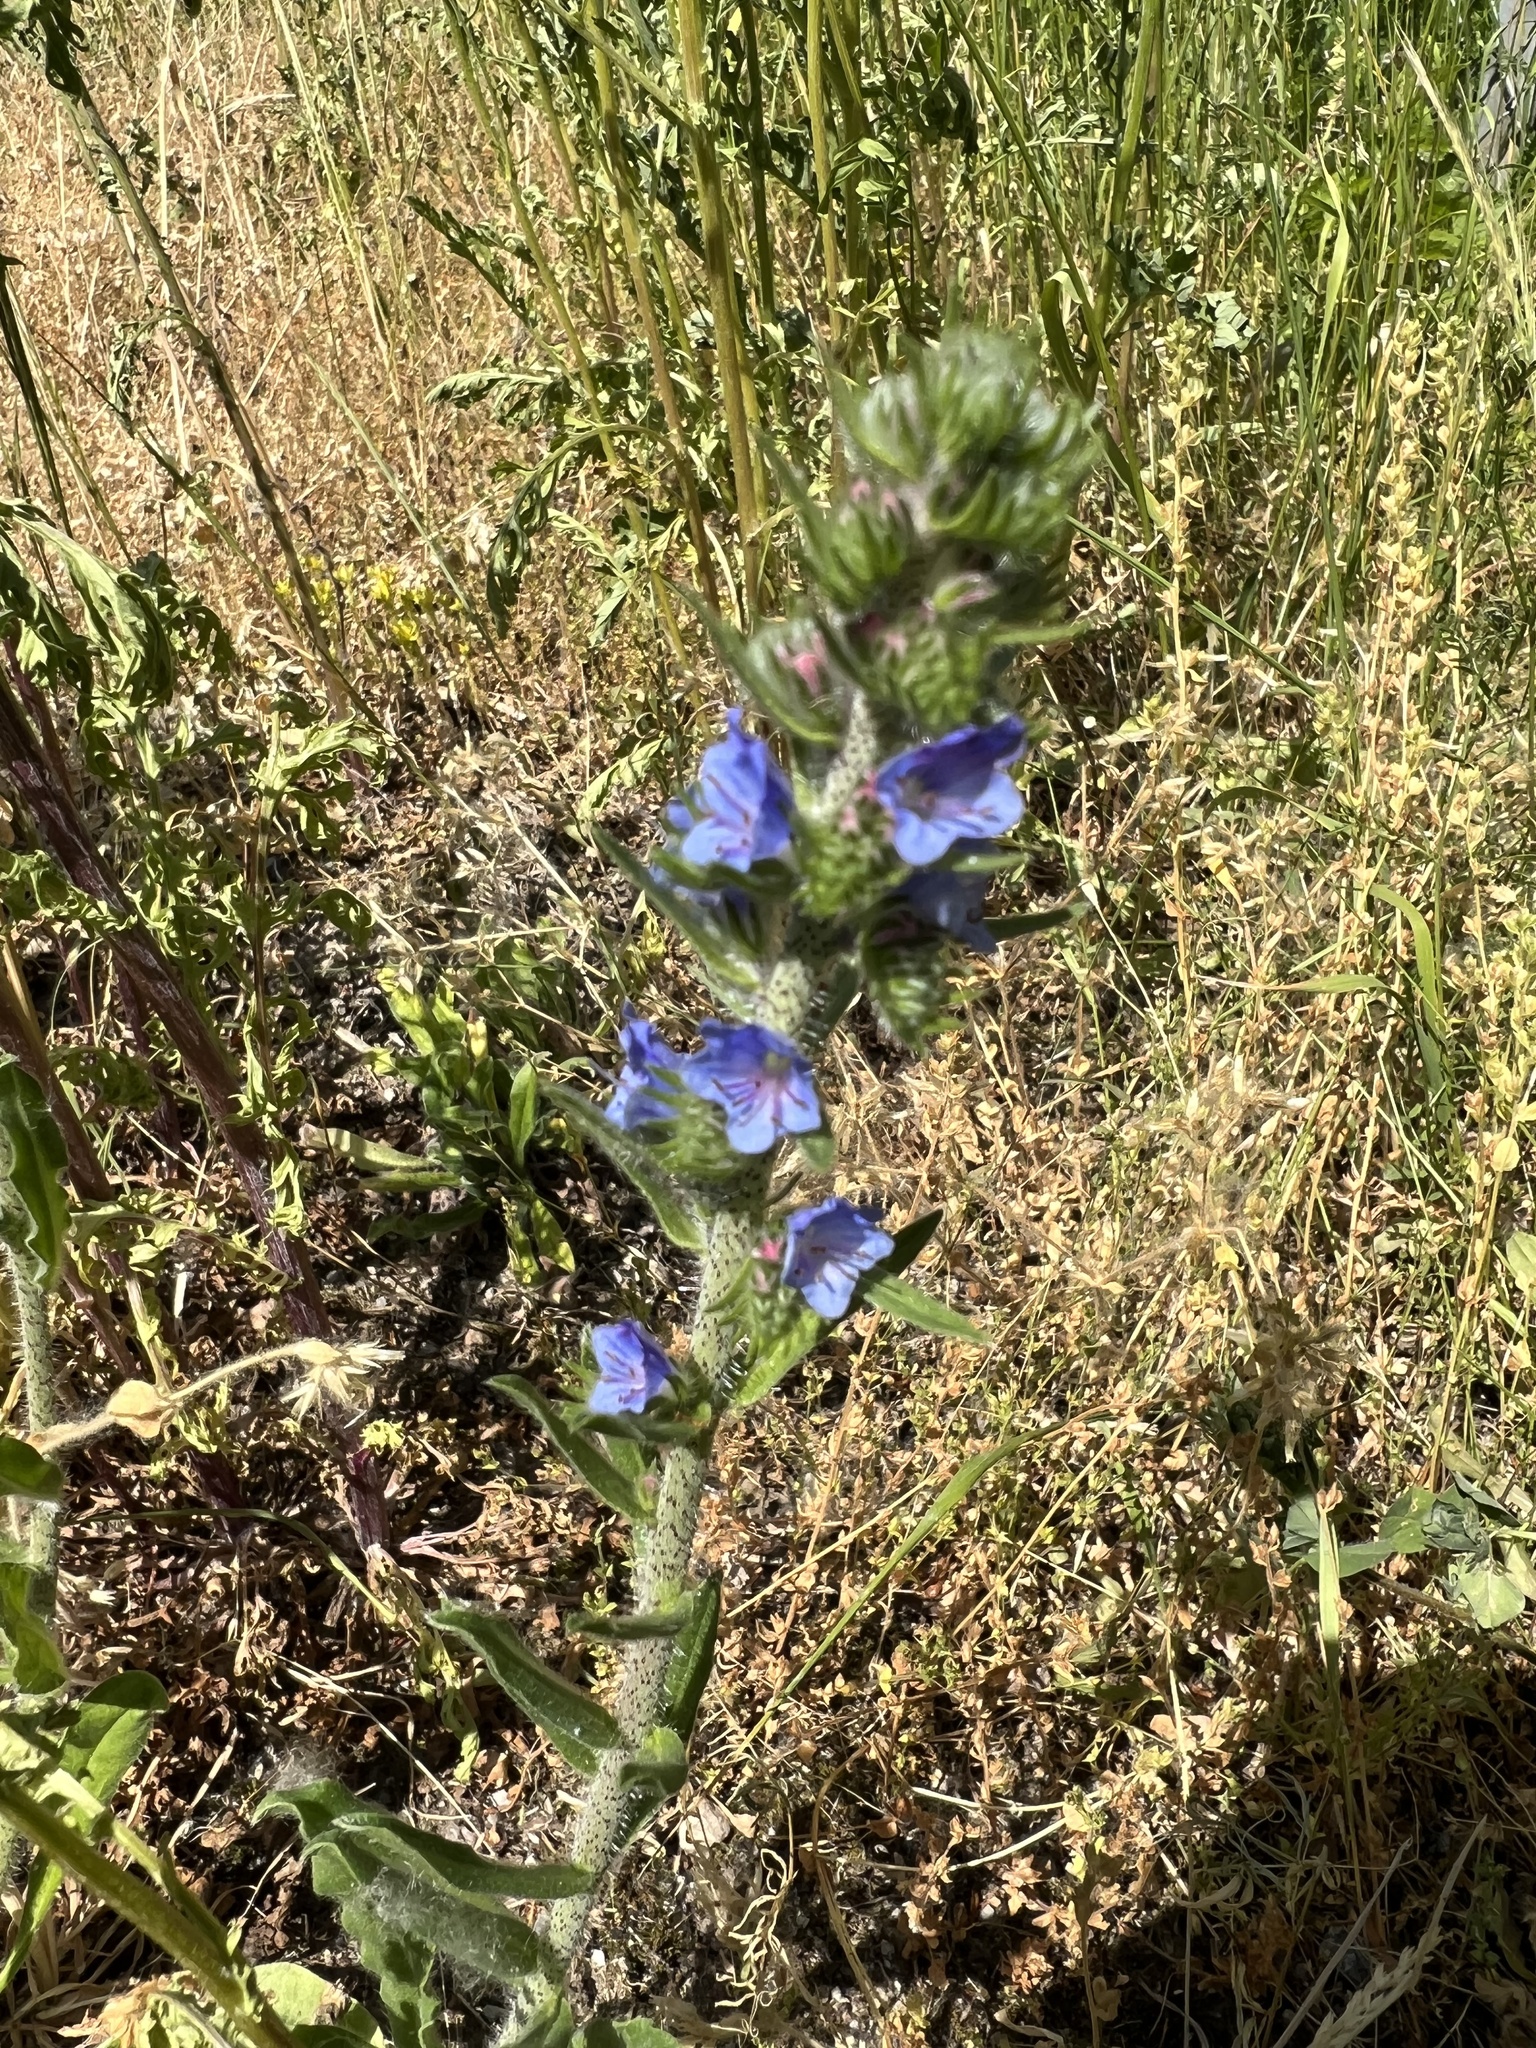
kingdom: Plantae
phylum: Tracheophyta
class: Magnoliopsida
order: Boraginales
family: Boraginaceae
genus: Echium
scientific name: Echium vulgare
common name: Common viper's bugloss
